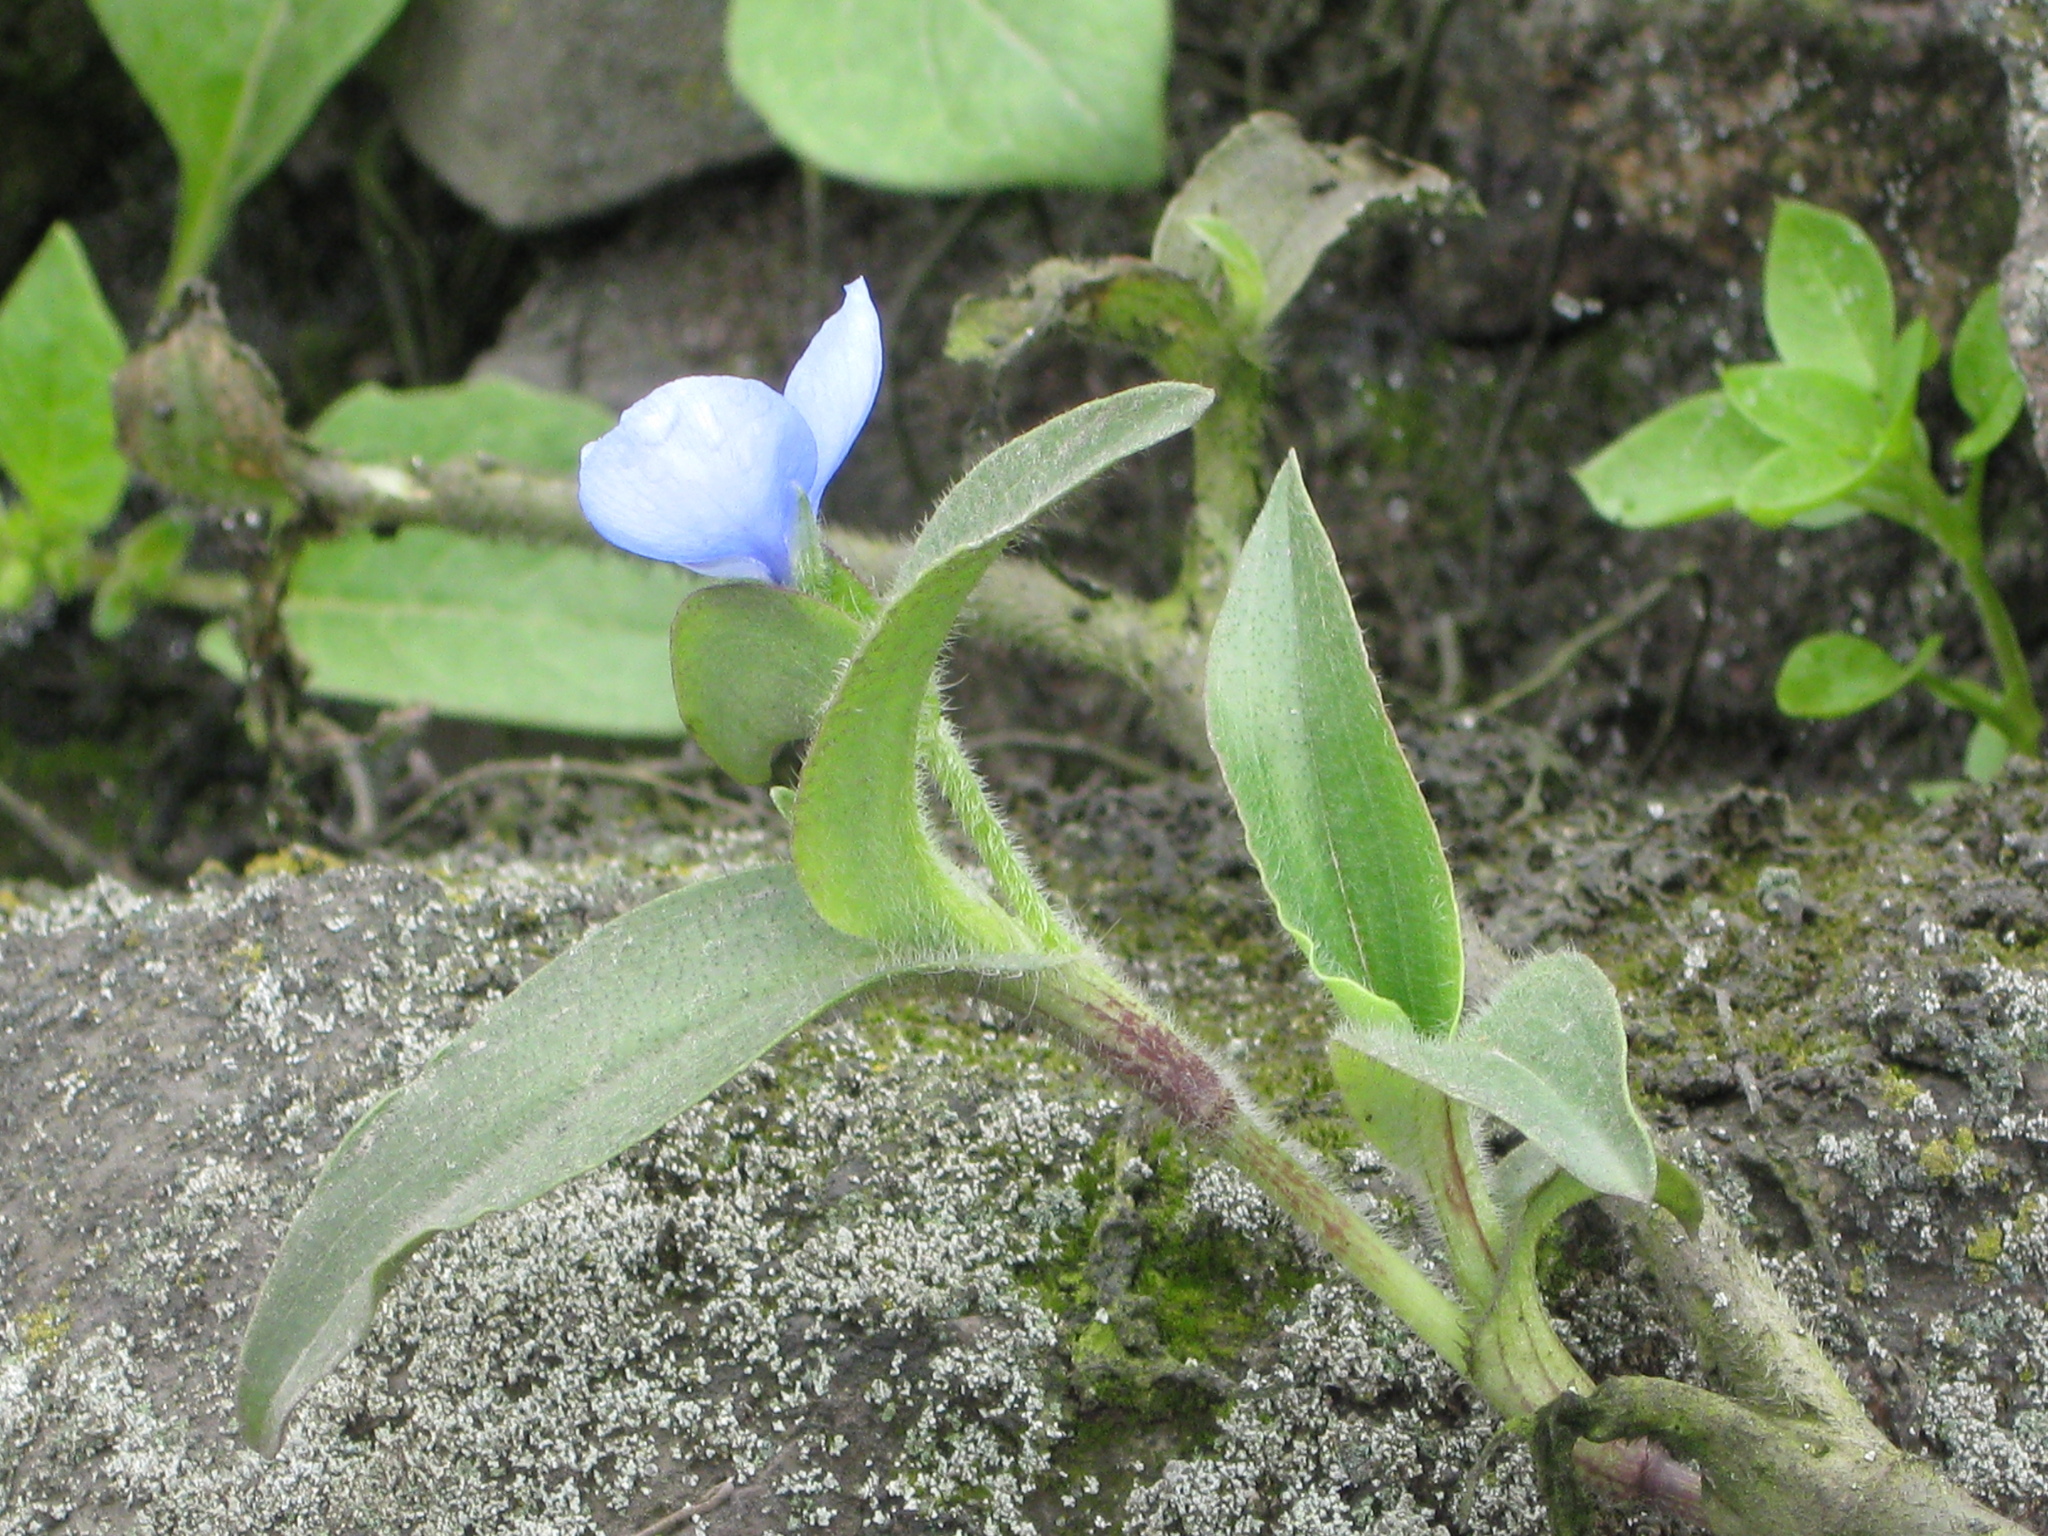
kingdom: Plantae
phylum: Tracheophyta
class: Liliopsida
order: Commelinales
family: Commelinaceae
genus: Commelina
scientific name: Commelina tuberosa
